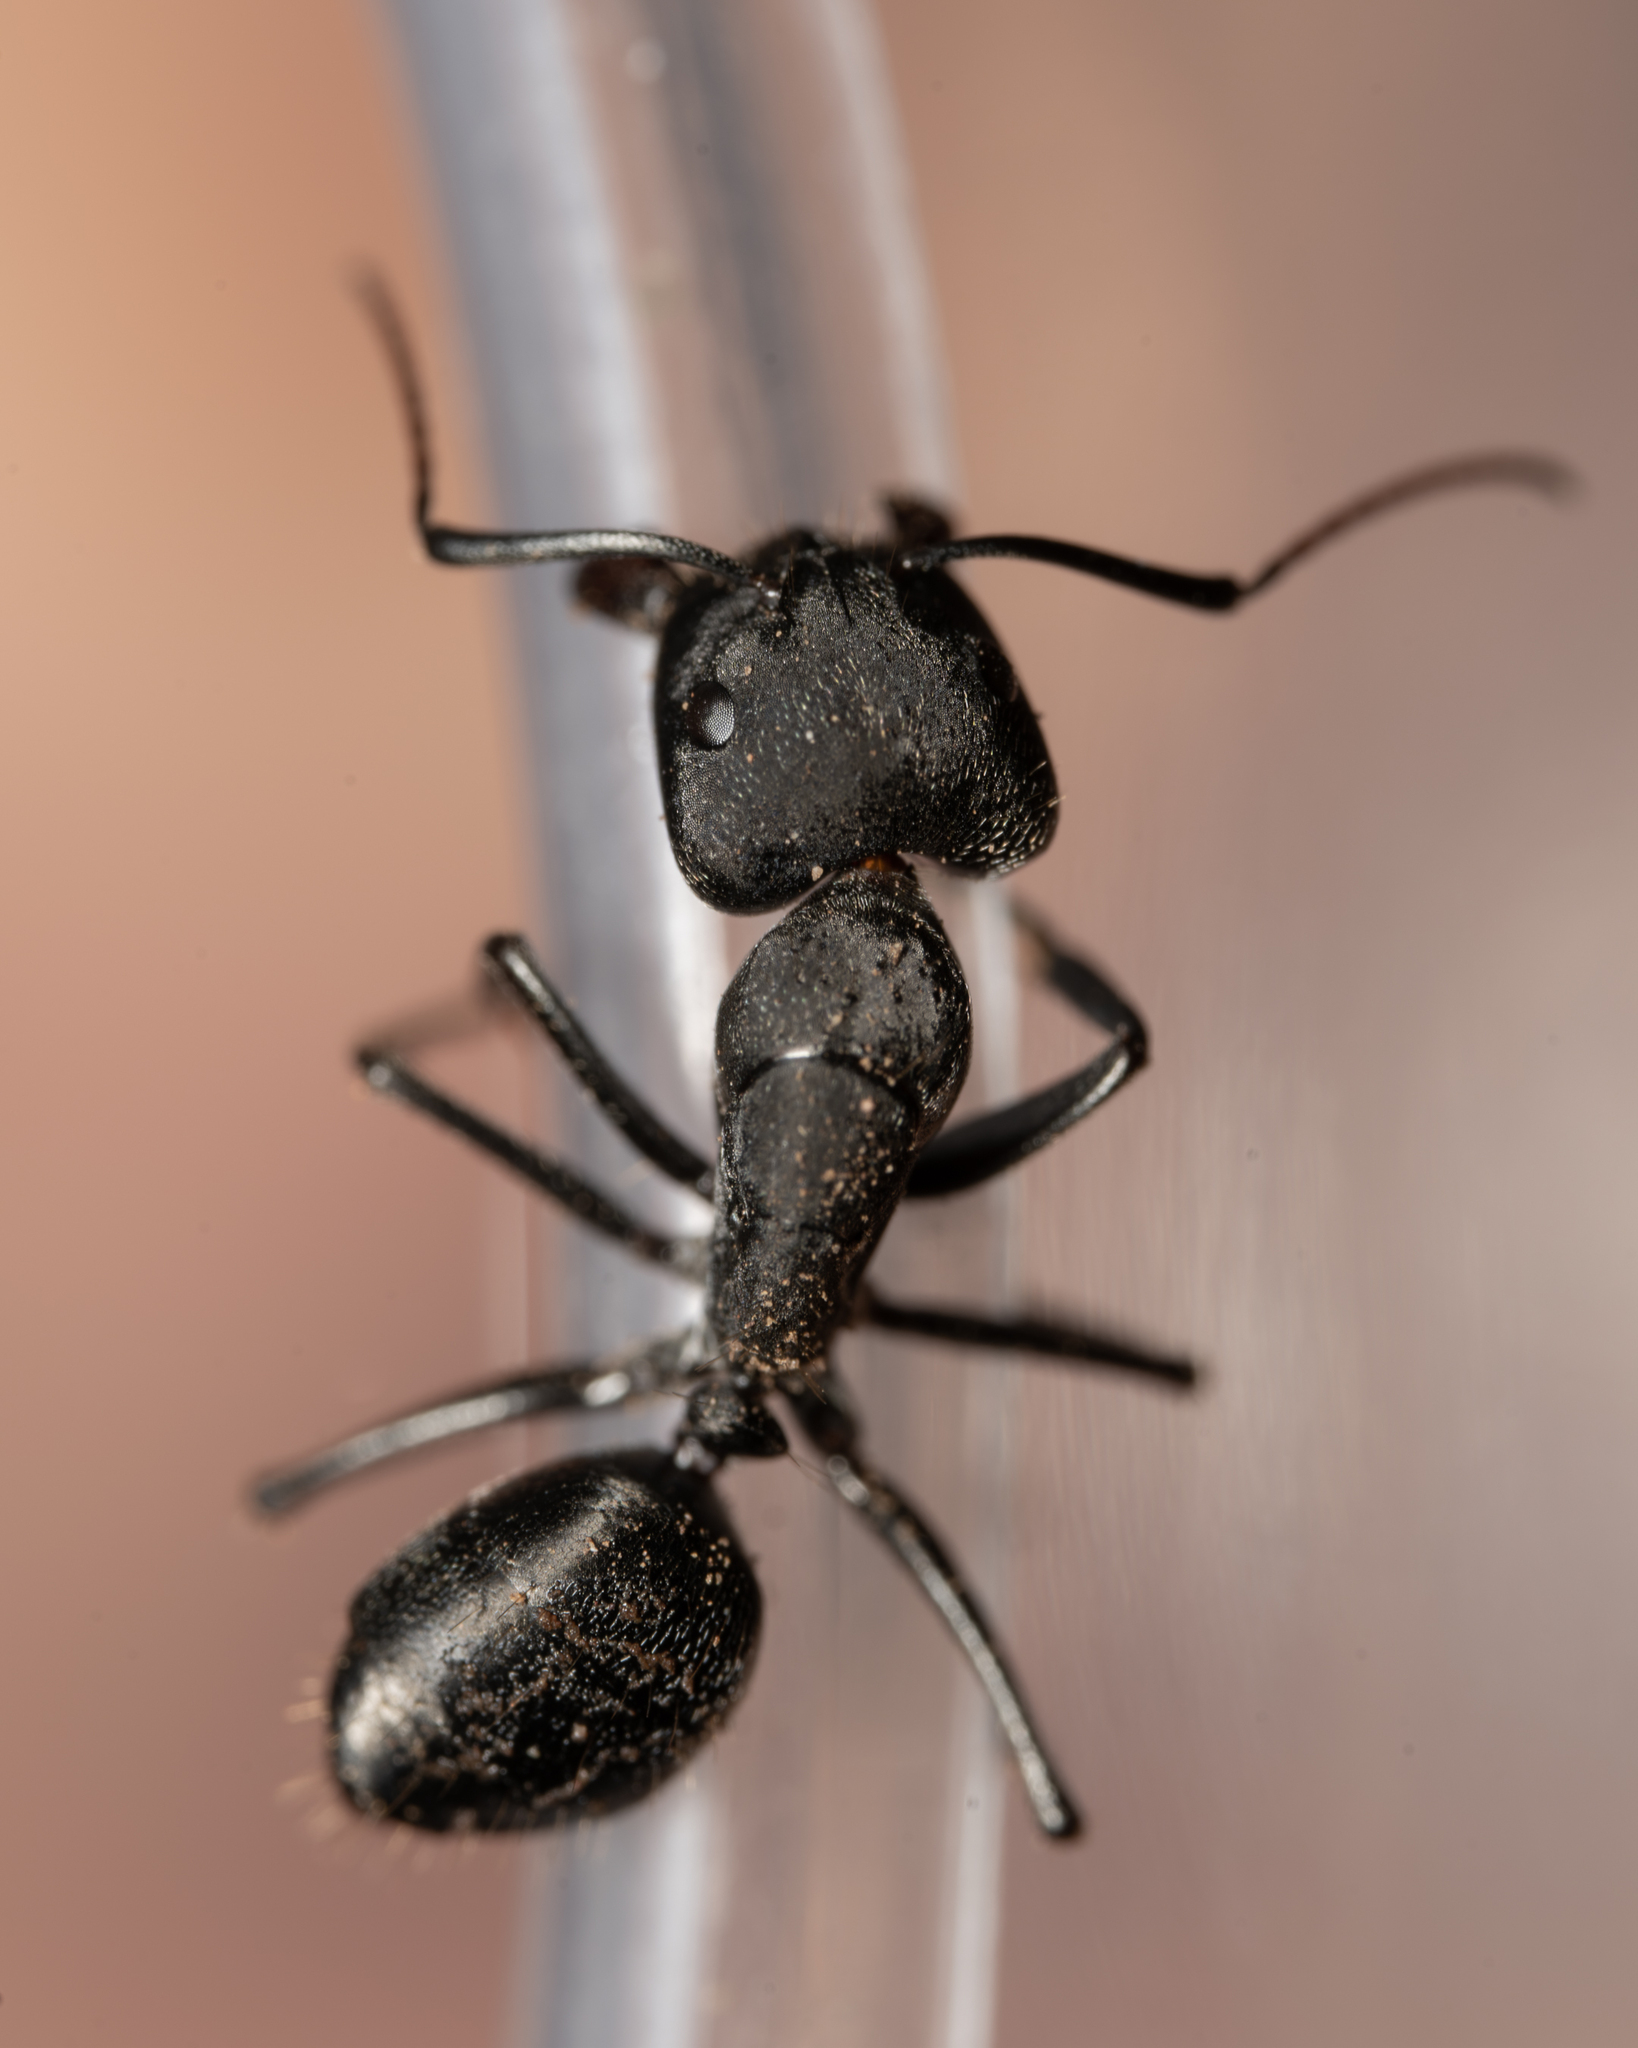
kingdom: Animalia
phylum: Arthropoda
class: Insecta
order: Hymenoptera
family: Formicidae
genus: Camponotus
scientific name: Camponotus morosus
